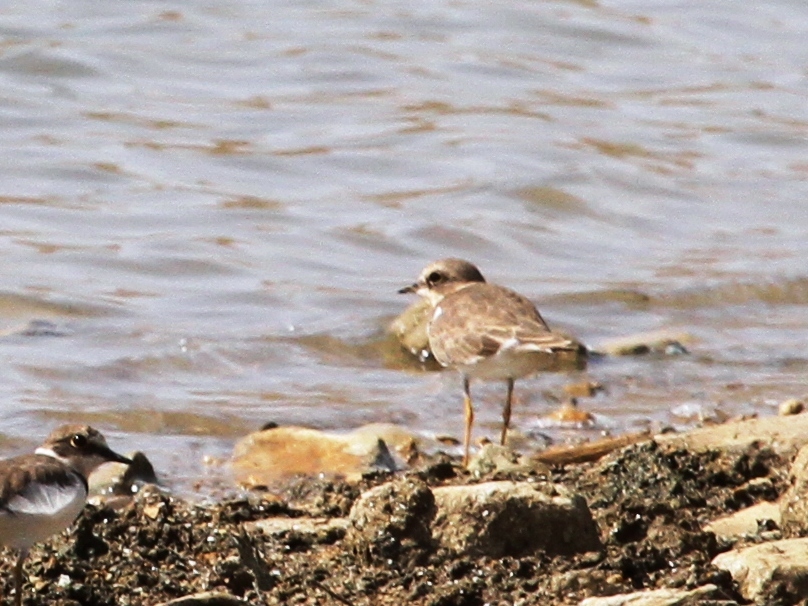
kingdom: Animalia
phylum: Chordata
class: Aves
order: Charadriiformes
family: Charadriidae
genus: Charadrius
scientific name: Charadrius dubius
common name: Little ringed plover
